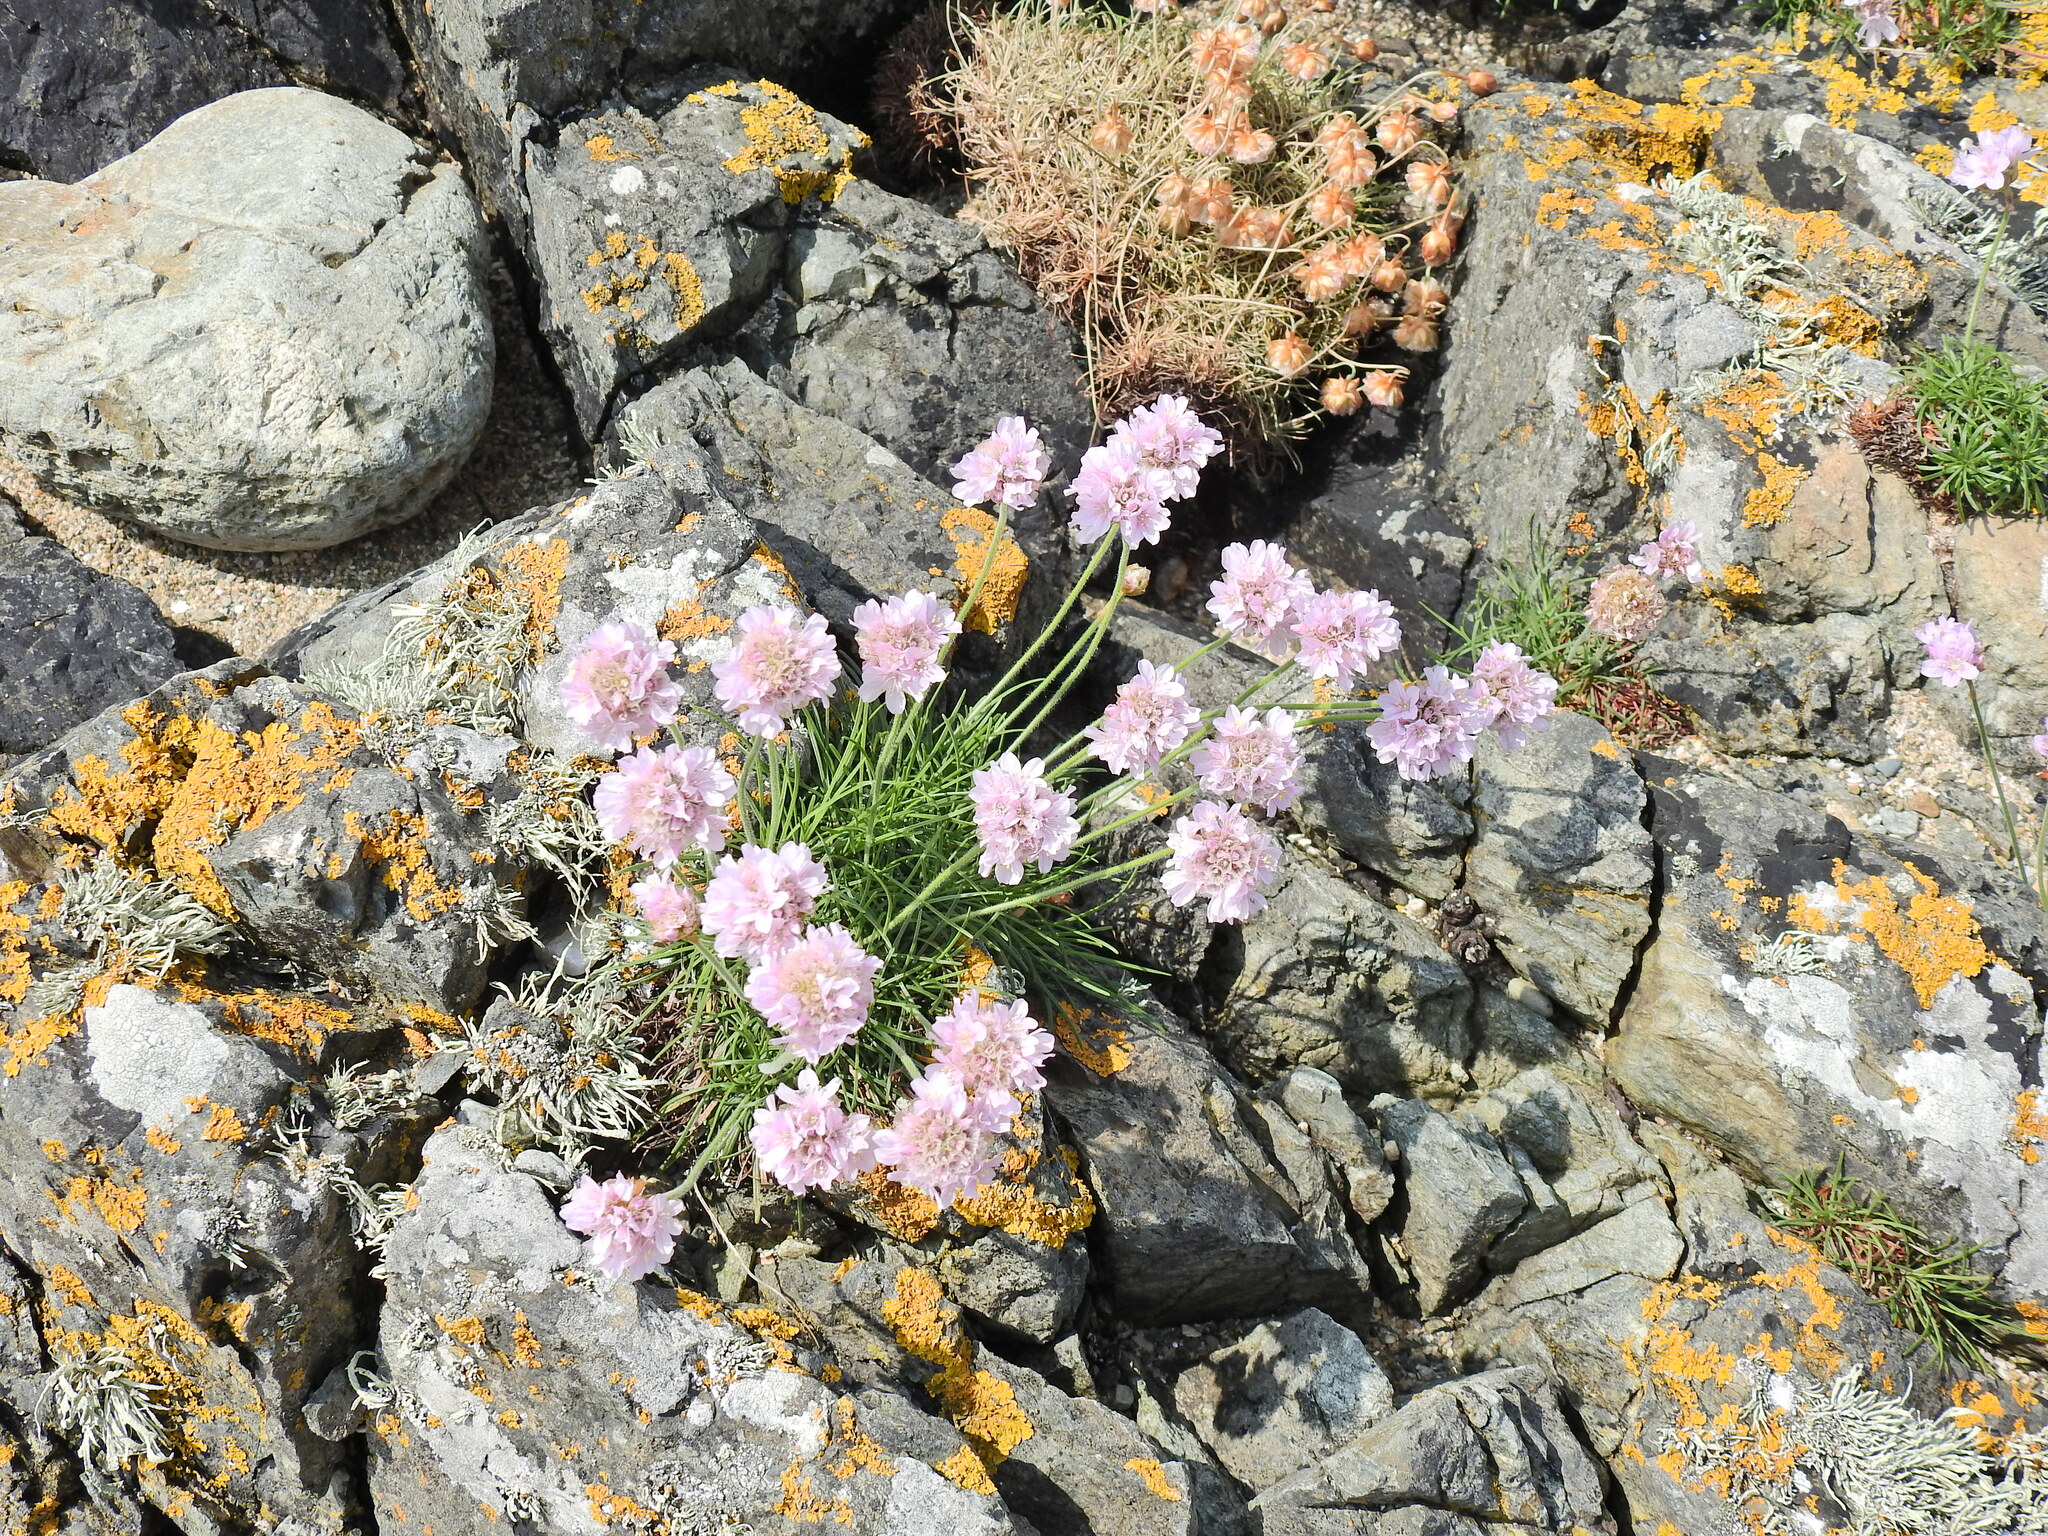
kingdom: Plantae
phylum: Tracheophyta
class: Magnoliopsida
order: Caryophyllales
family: Plumbaginaceae
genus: Armeria
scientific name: Armeria maritima
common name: Thrift
